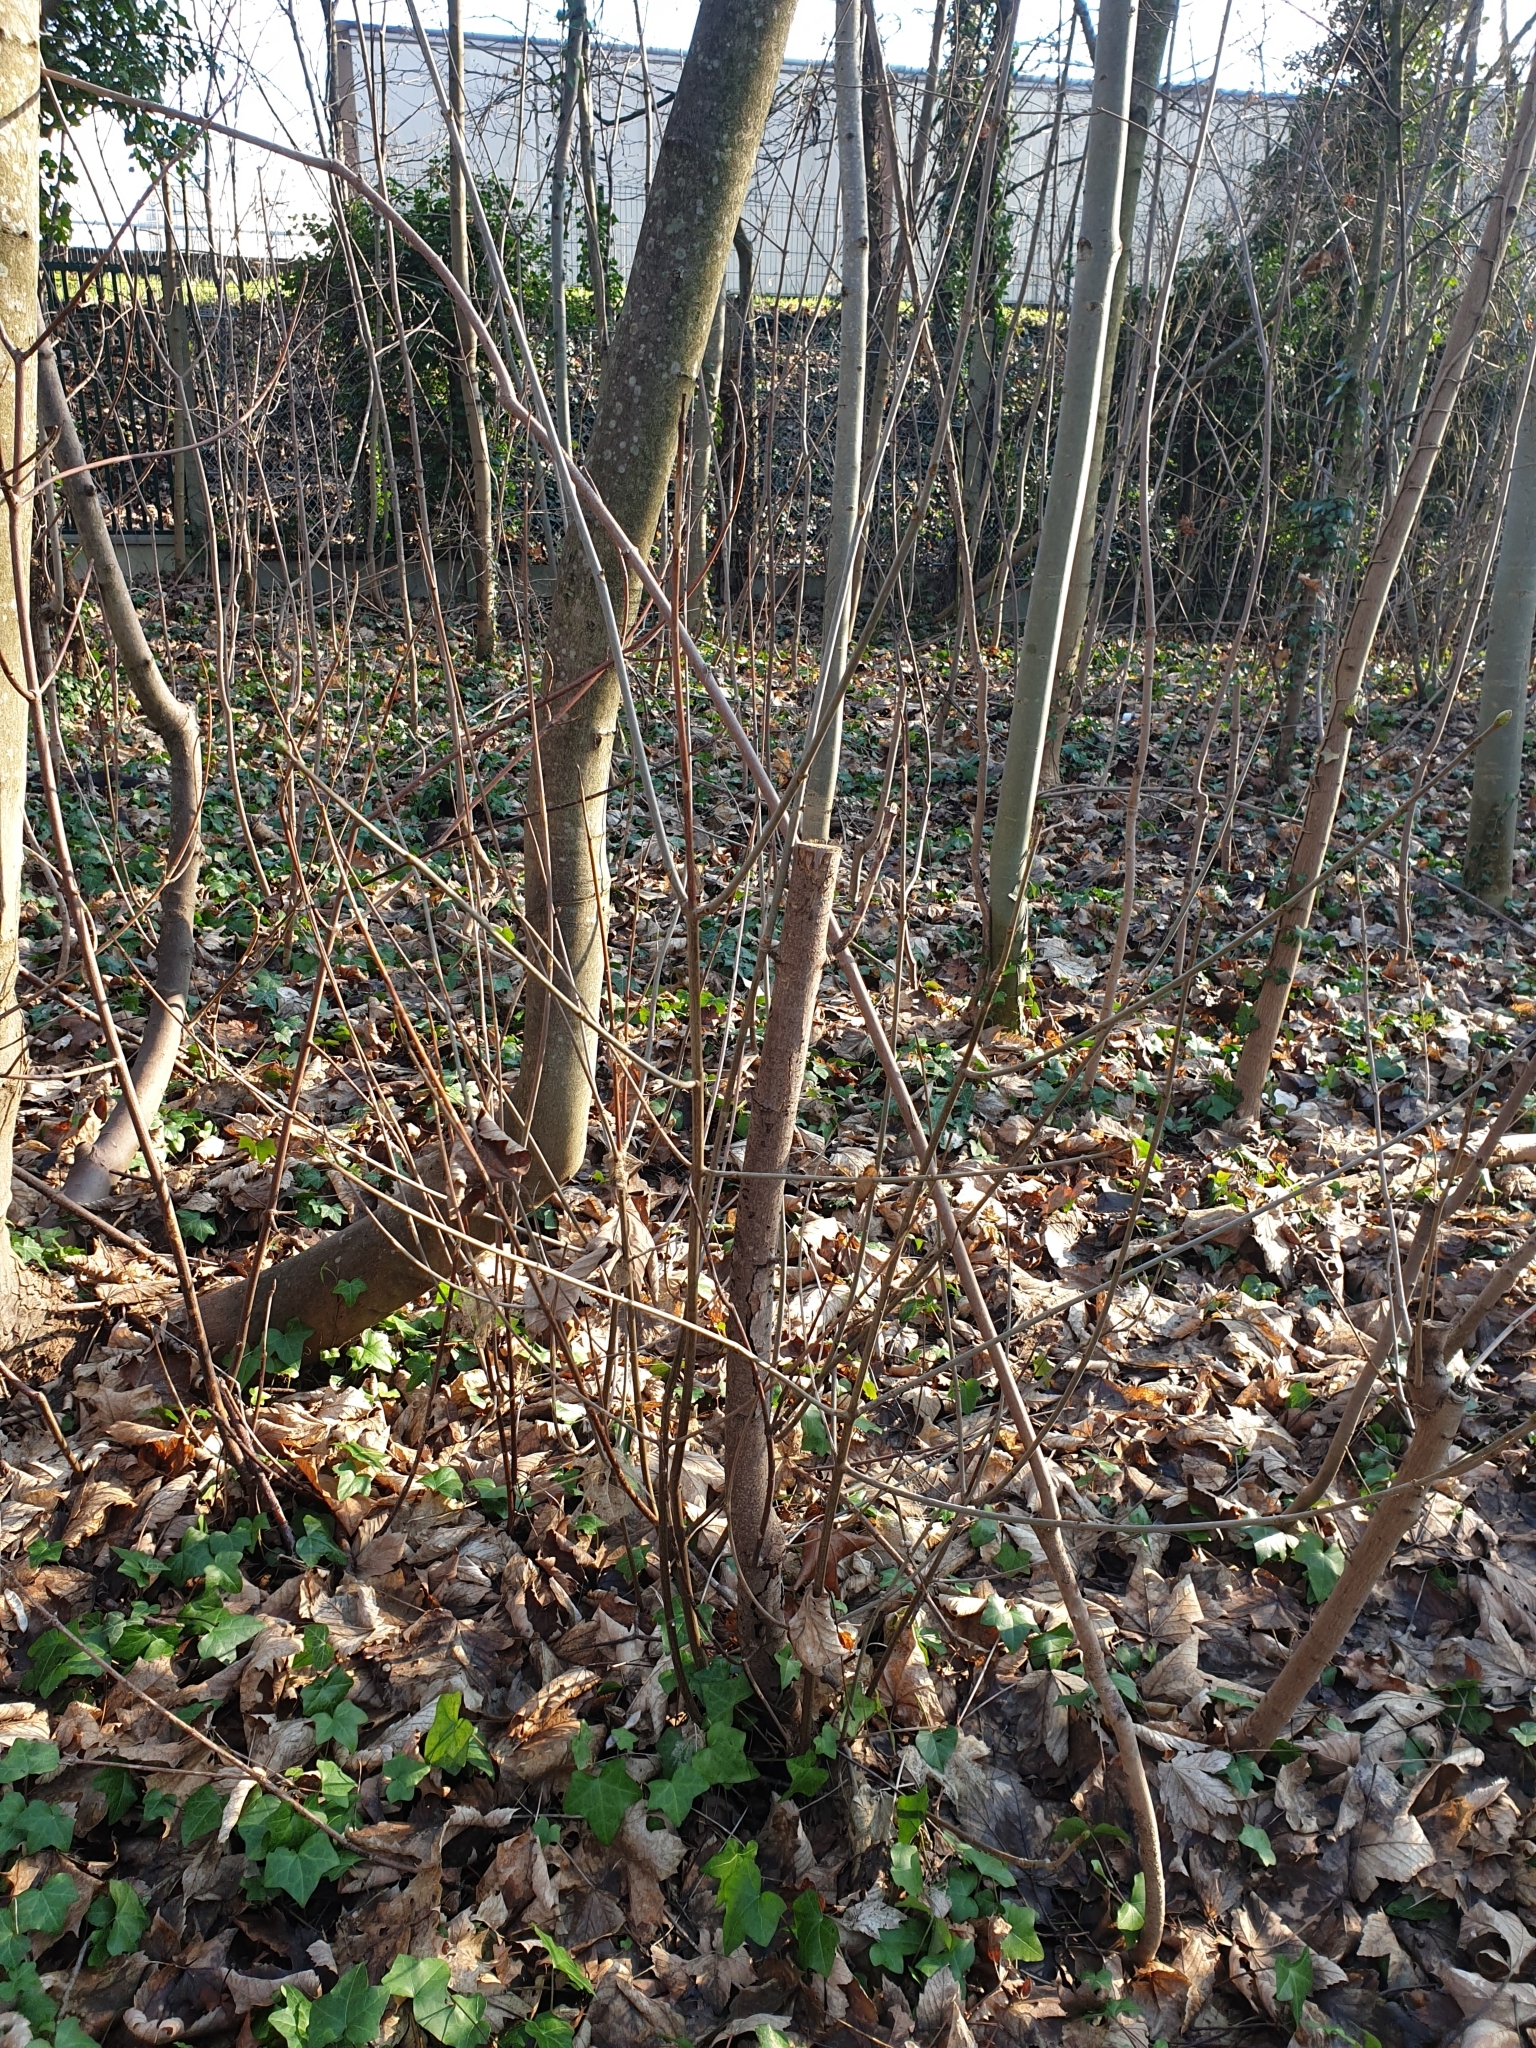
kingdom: Plantae
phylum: Tracheophyta
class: Magnoliopsida
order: Sapindales
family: Sapindaceae
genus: Acer
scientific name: Acer pseudoplatanus
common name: Sycamore
